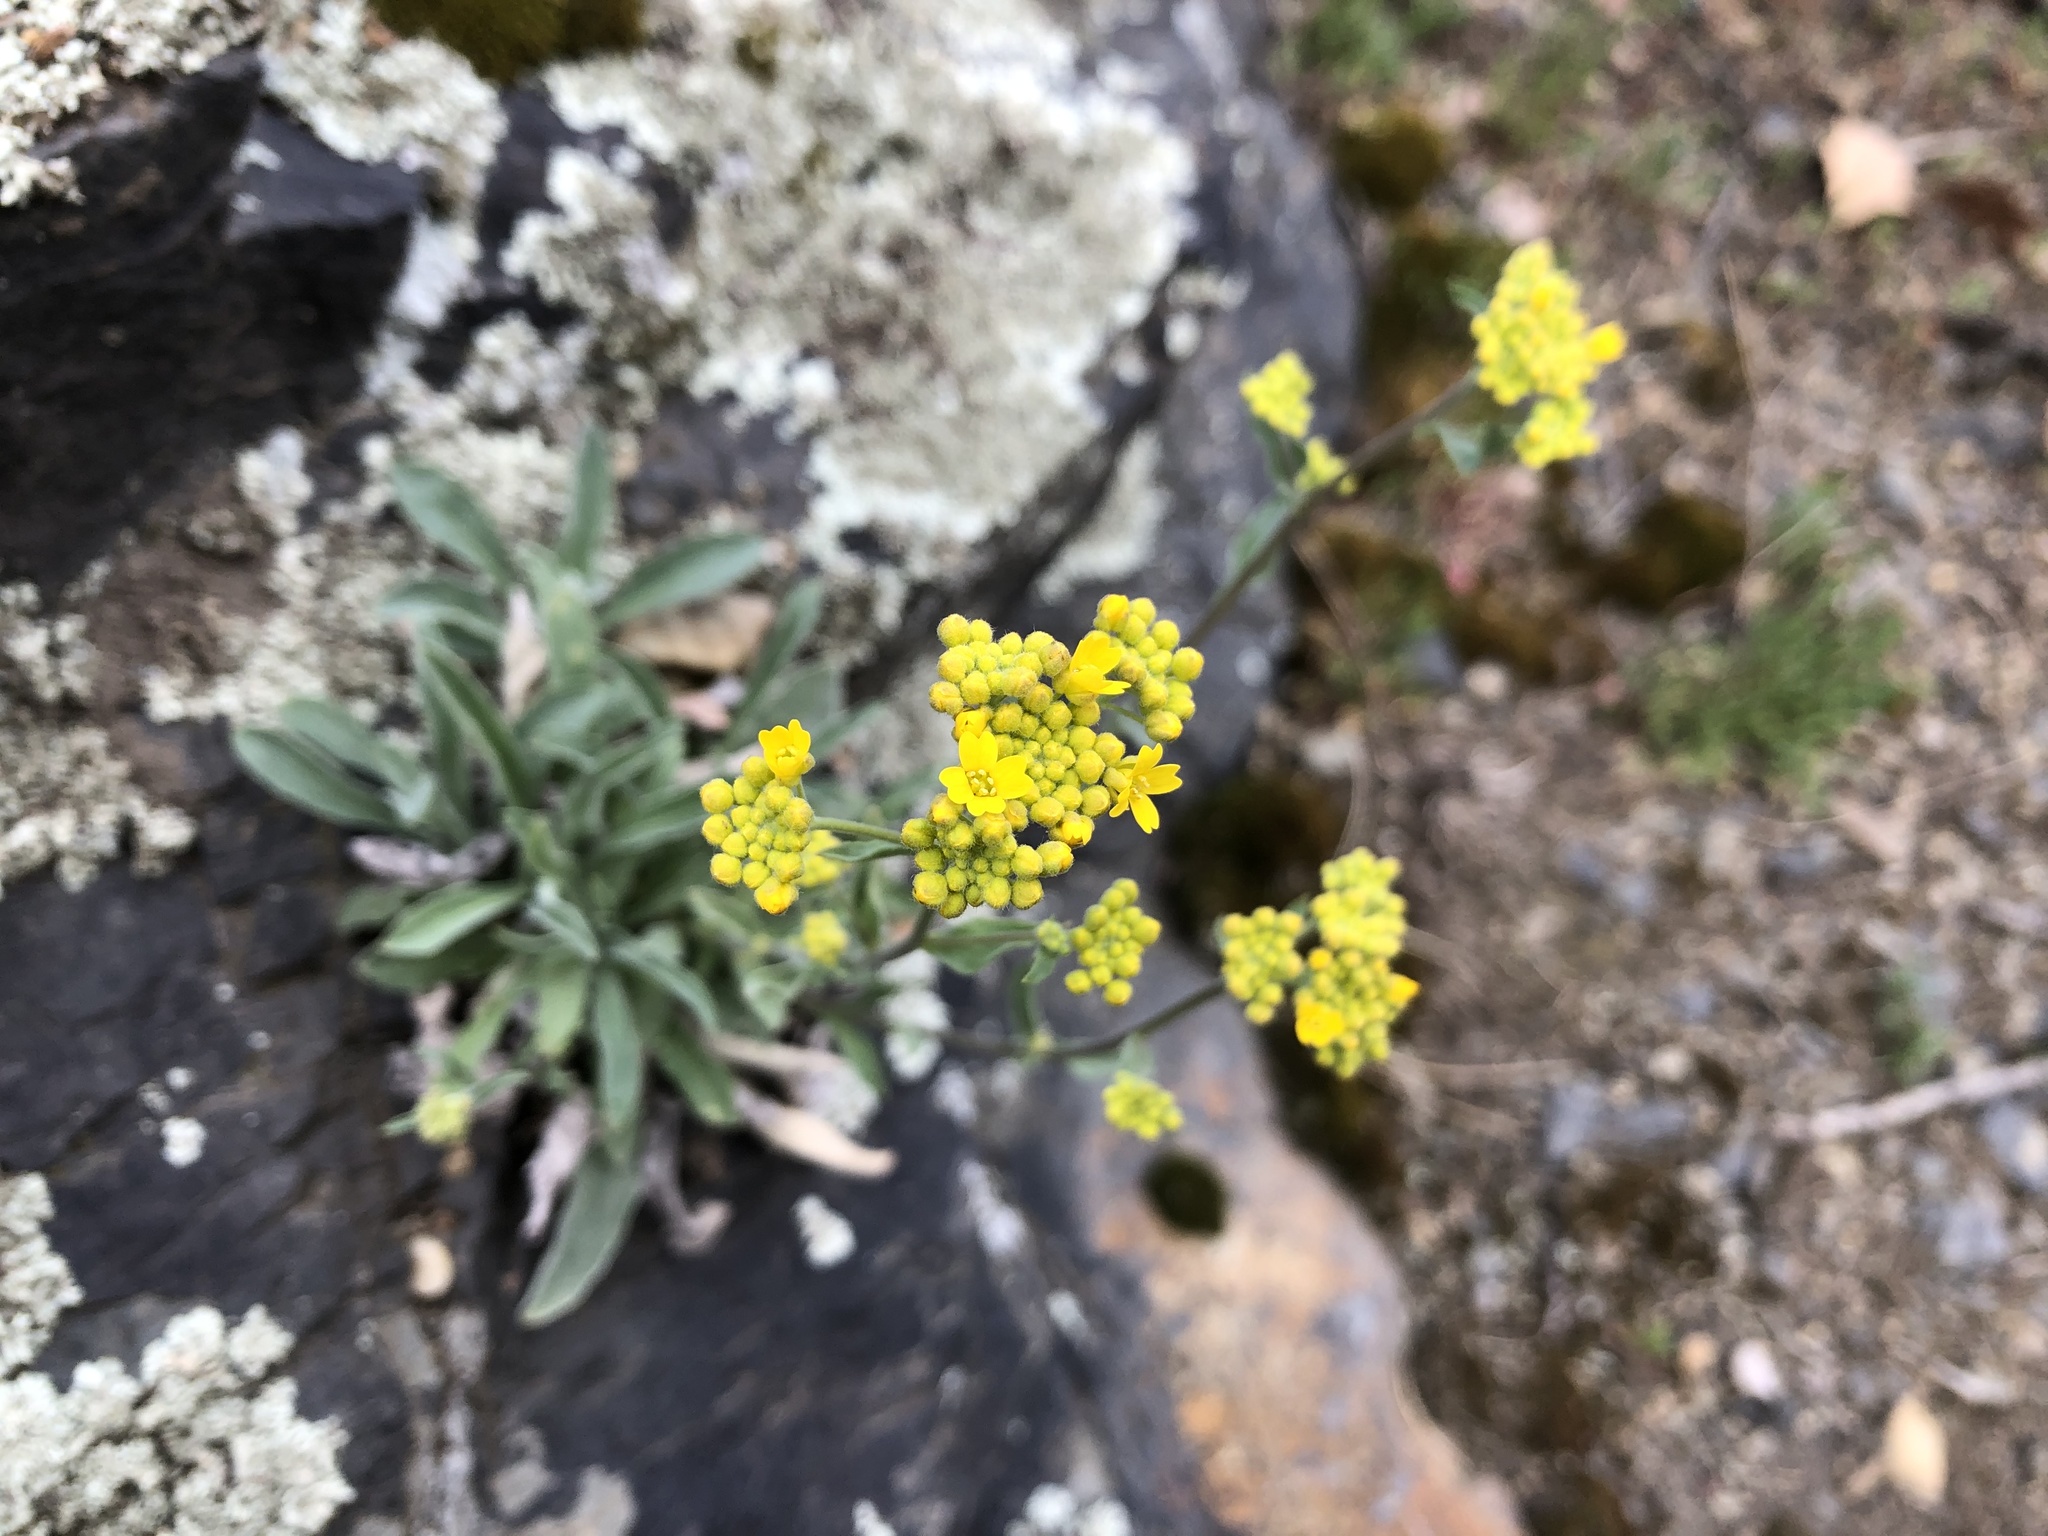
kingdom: Plantae
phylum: Tracheophyta
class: Magnoliopsida
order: Brassicales
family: Brassicaceae
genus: Aurinia
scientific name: Aurinia saxatilis
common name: Golden-tuft alyssum
